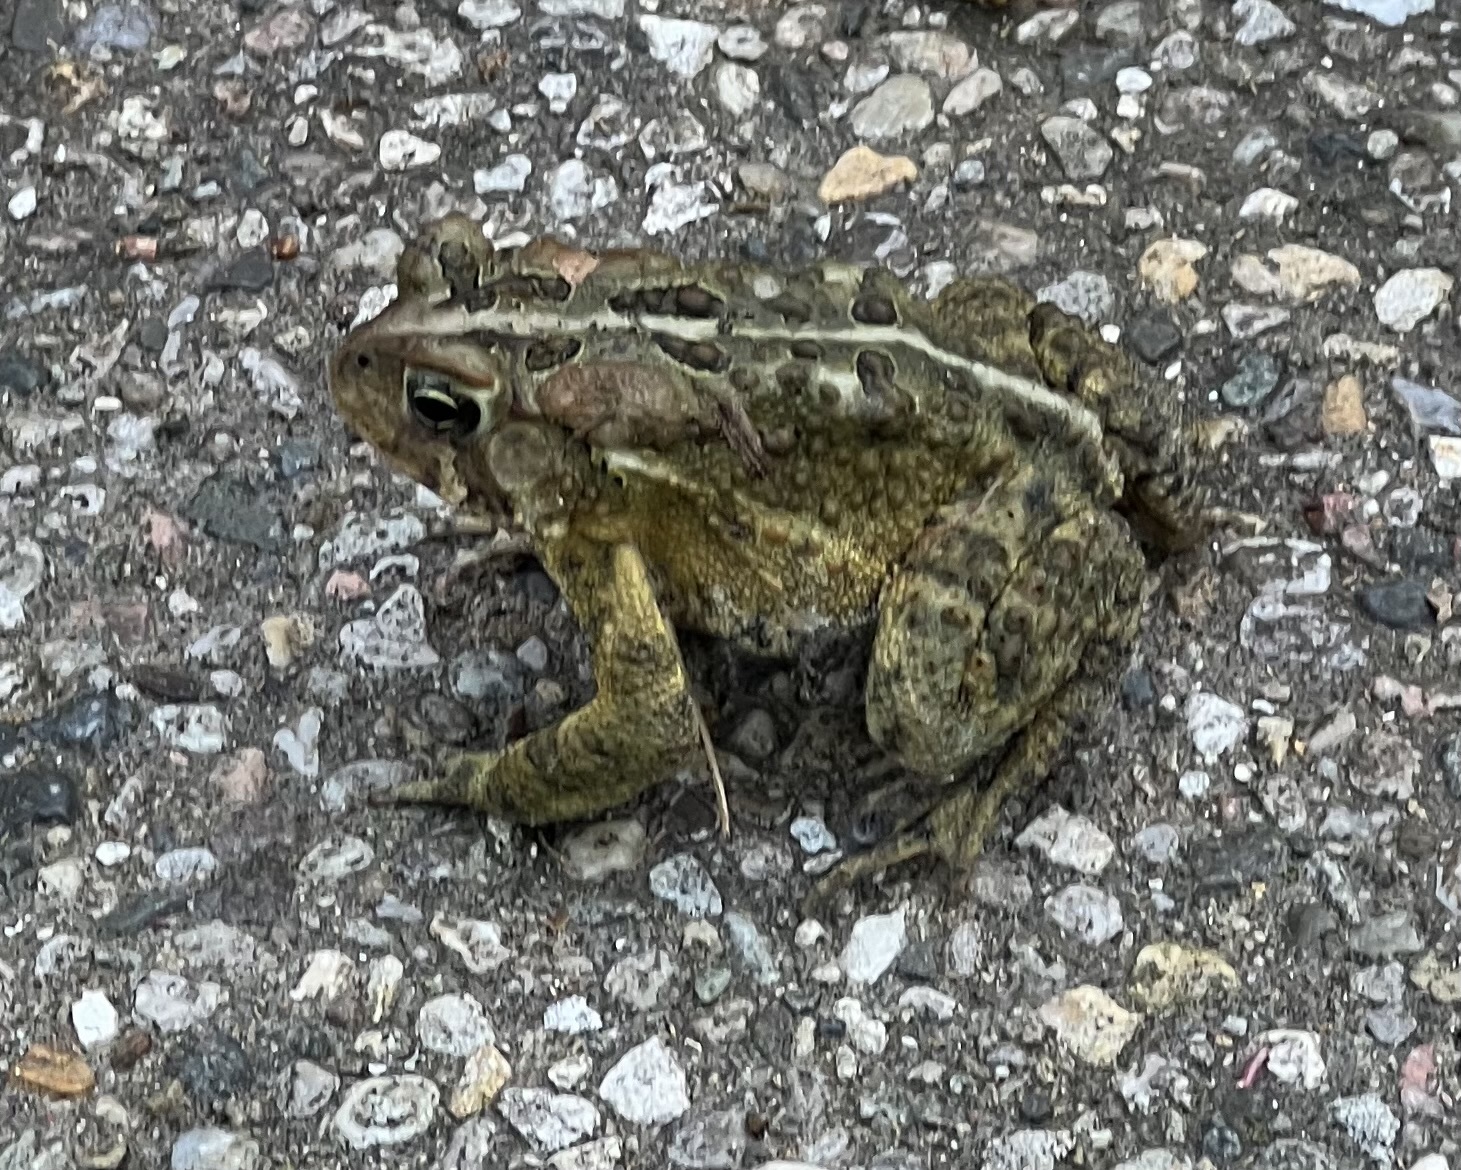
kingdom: Animalia
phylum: Chordata
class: Amphibia
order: Anura
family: Bufonidae
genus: Anaxyrus
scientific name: Anaxyrus americanus
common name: American toad
